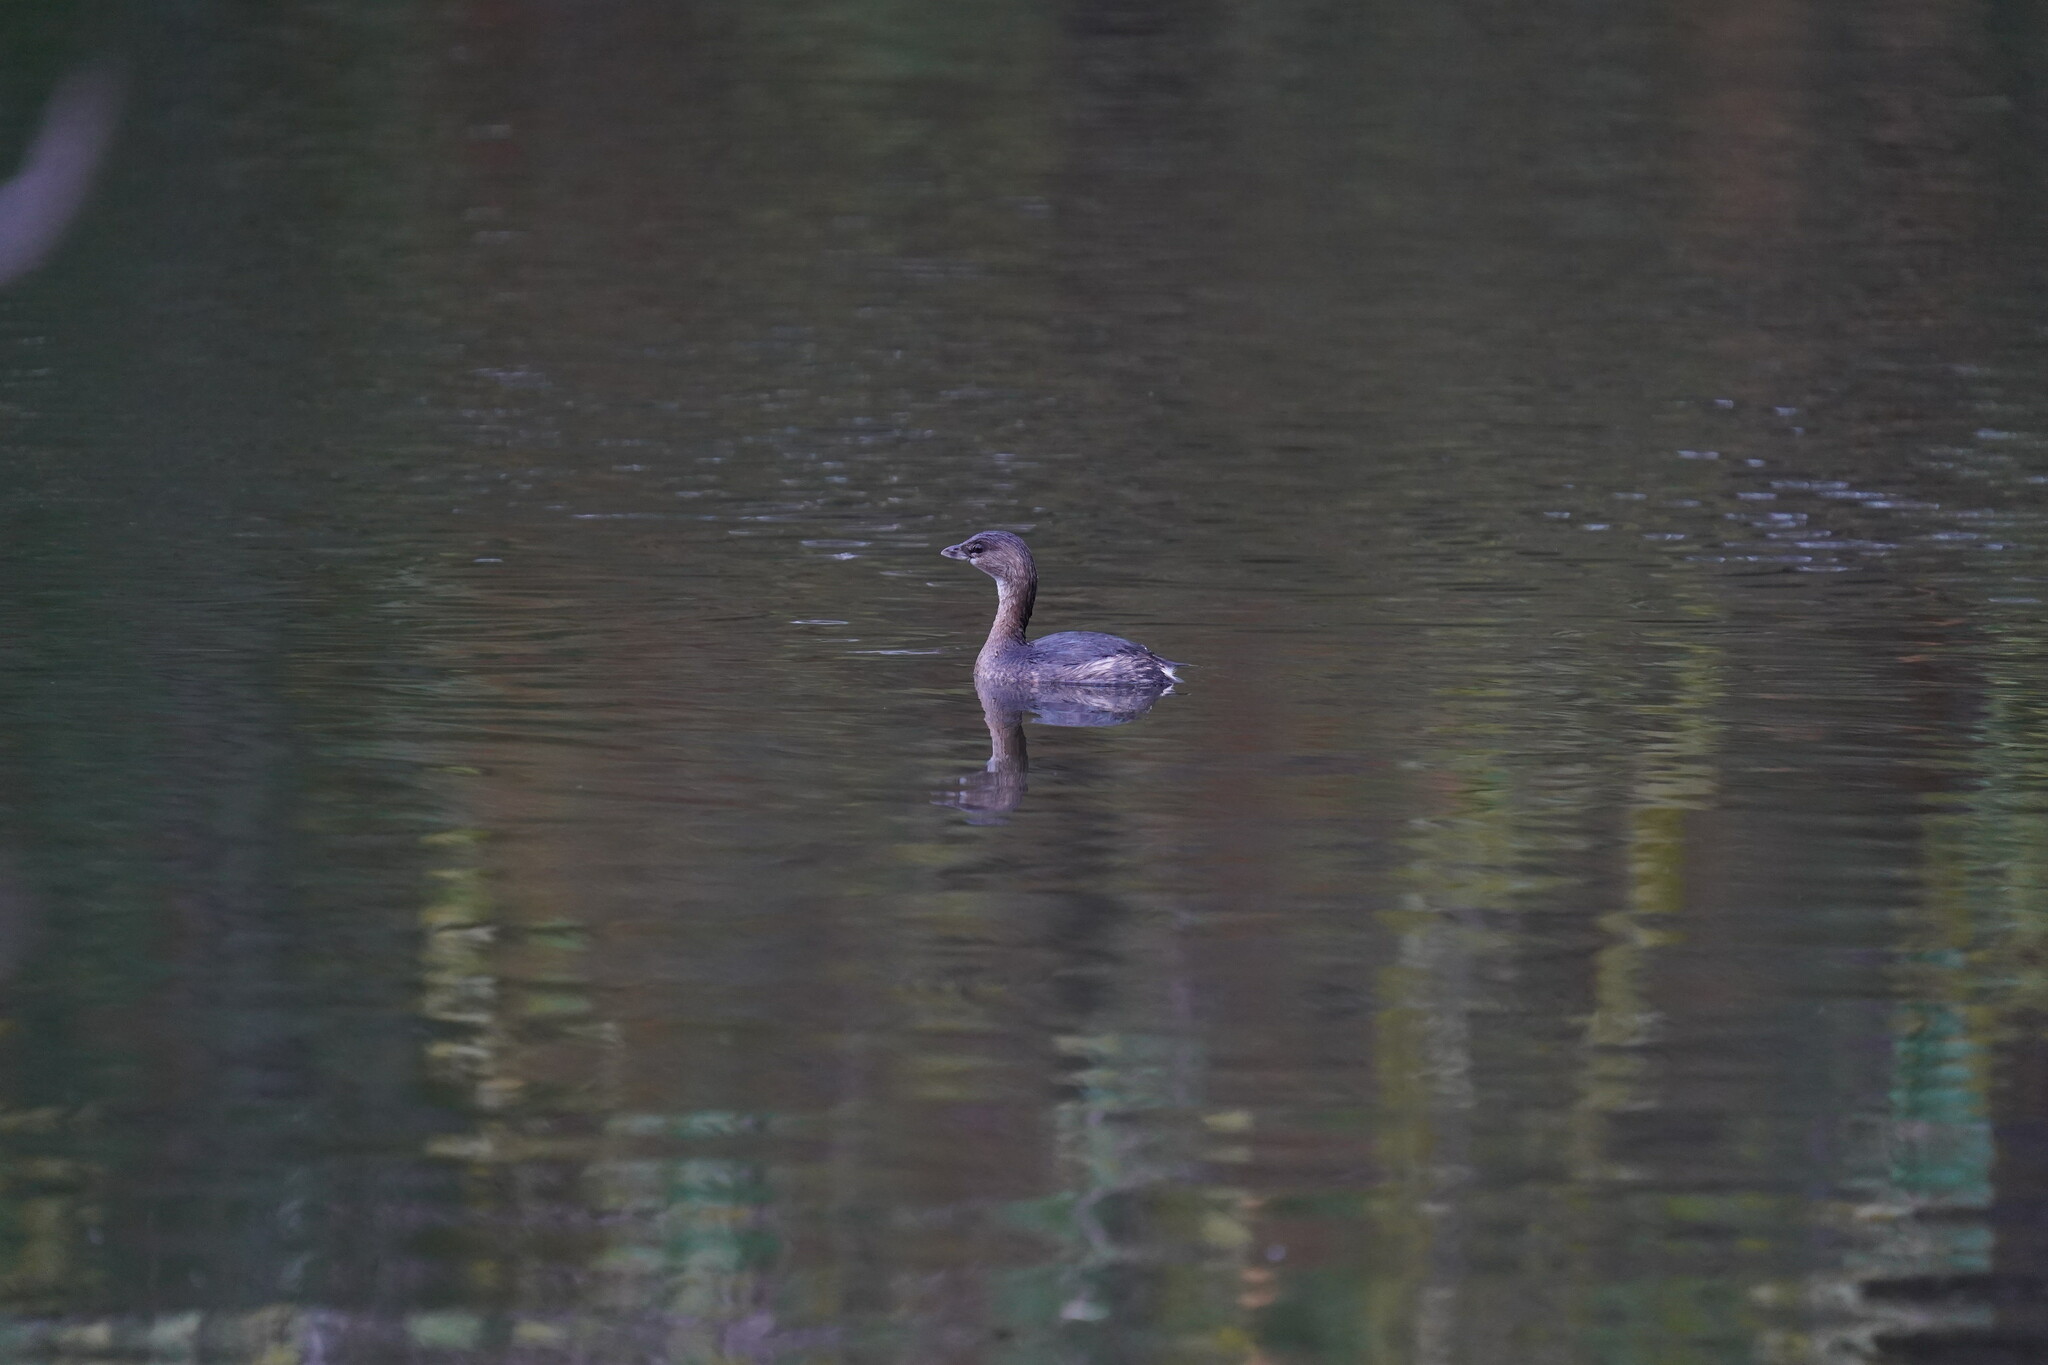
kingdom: Animalia
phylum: Chordata
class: Aves
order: Podicipediformes
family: Podicipedidae
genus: Podilymbus
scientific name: Podilymbus podiceps
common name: Pied-billed grebe
